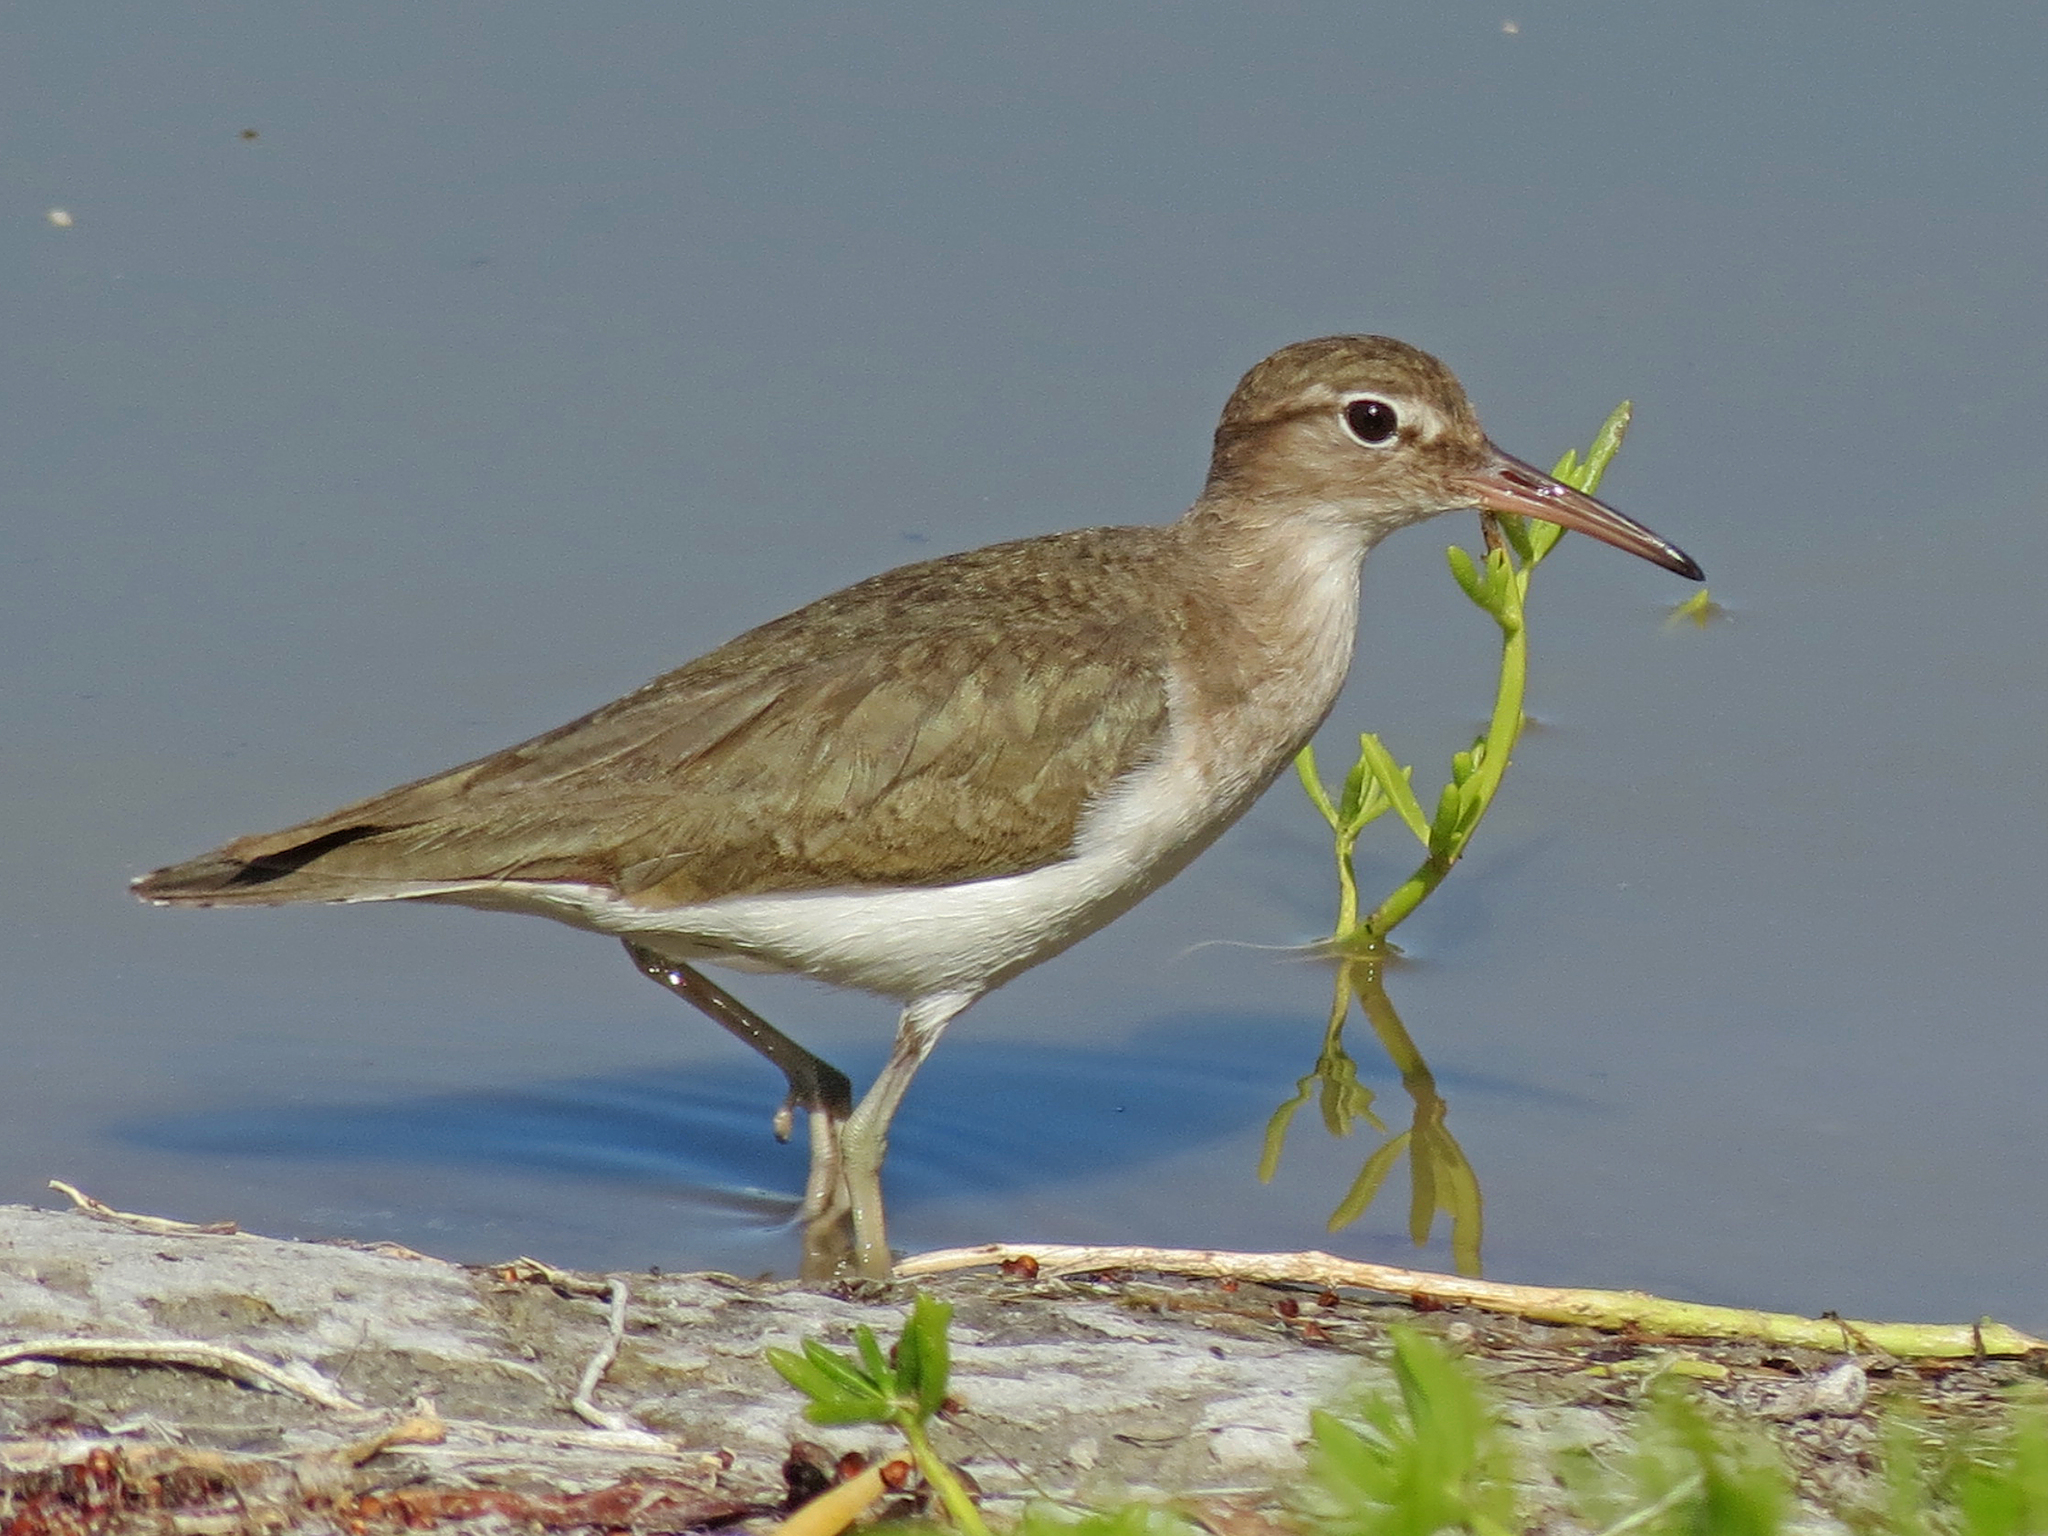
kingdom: Animalia
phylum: Chordata
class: Aves
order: Charadriiformes
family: Scolopacidae
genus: Actitis
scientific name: Actitis macularius
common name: Spotted sandpiper
